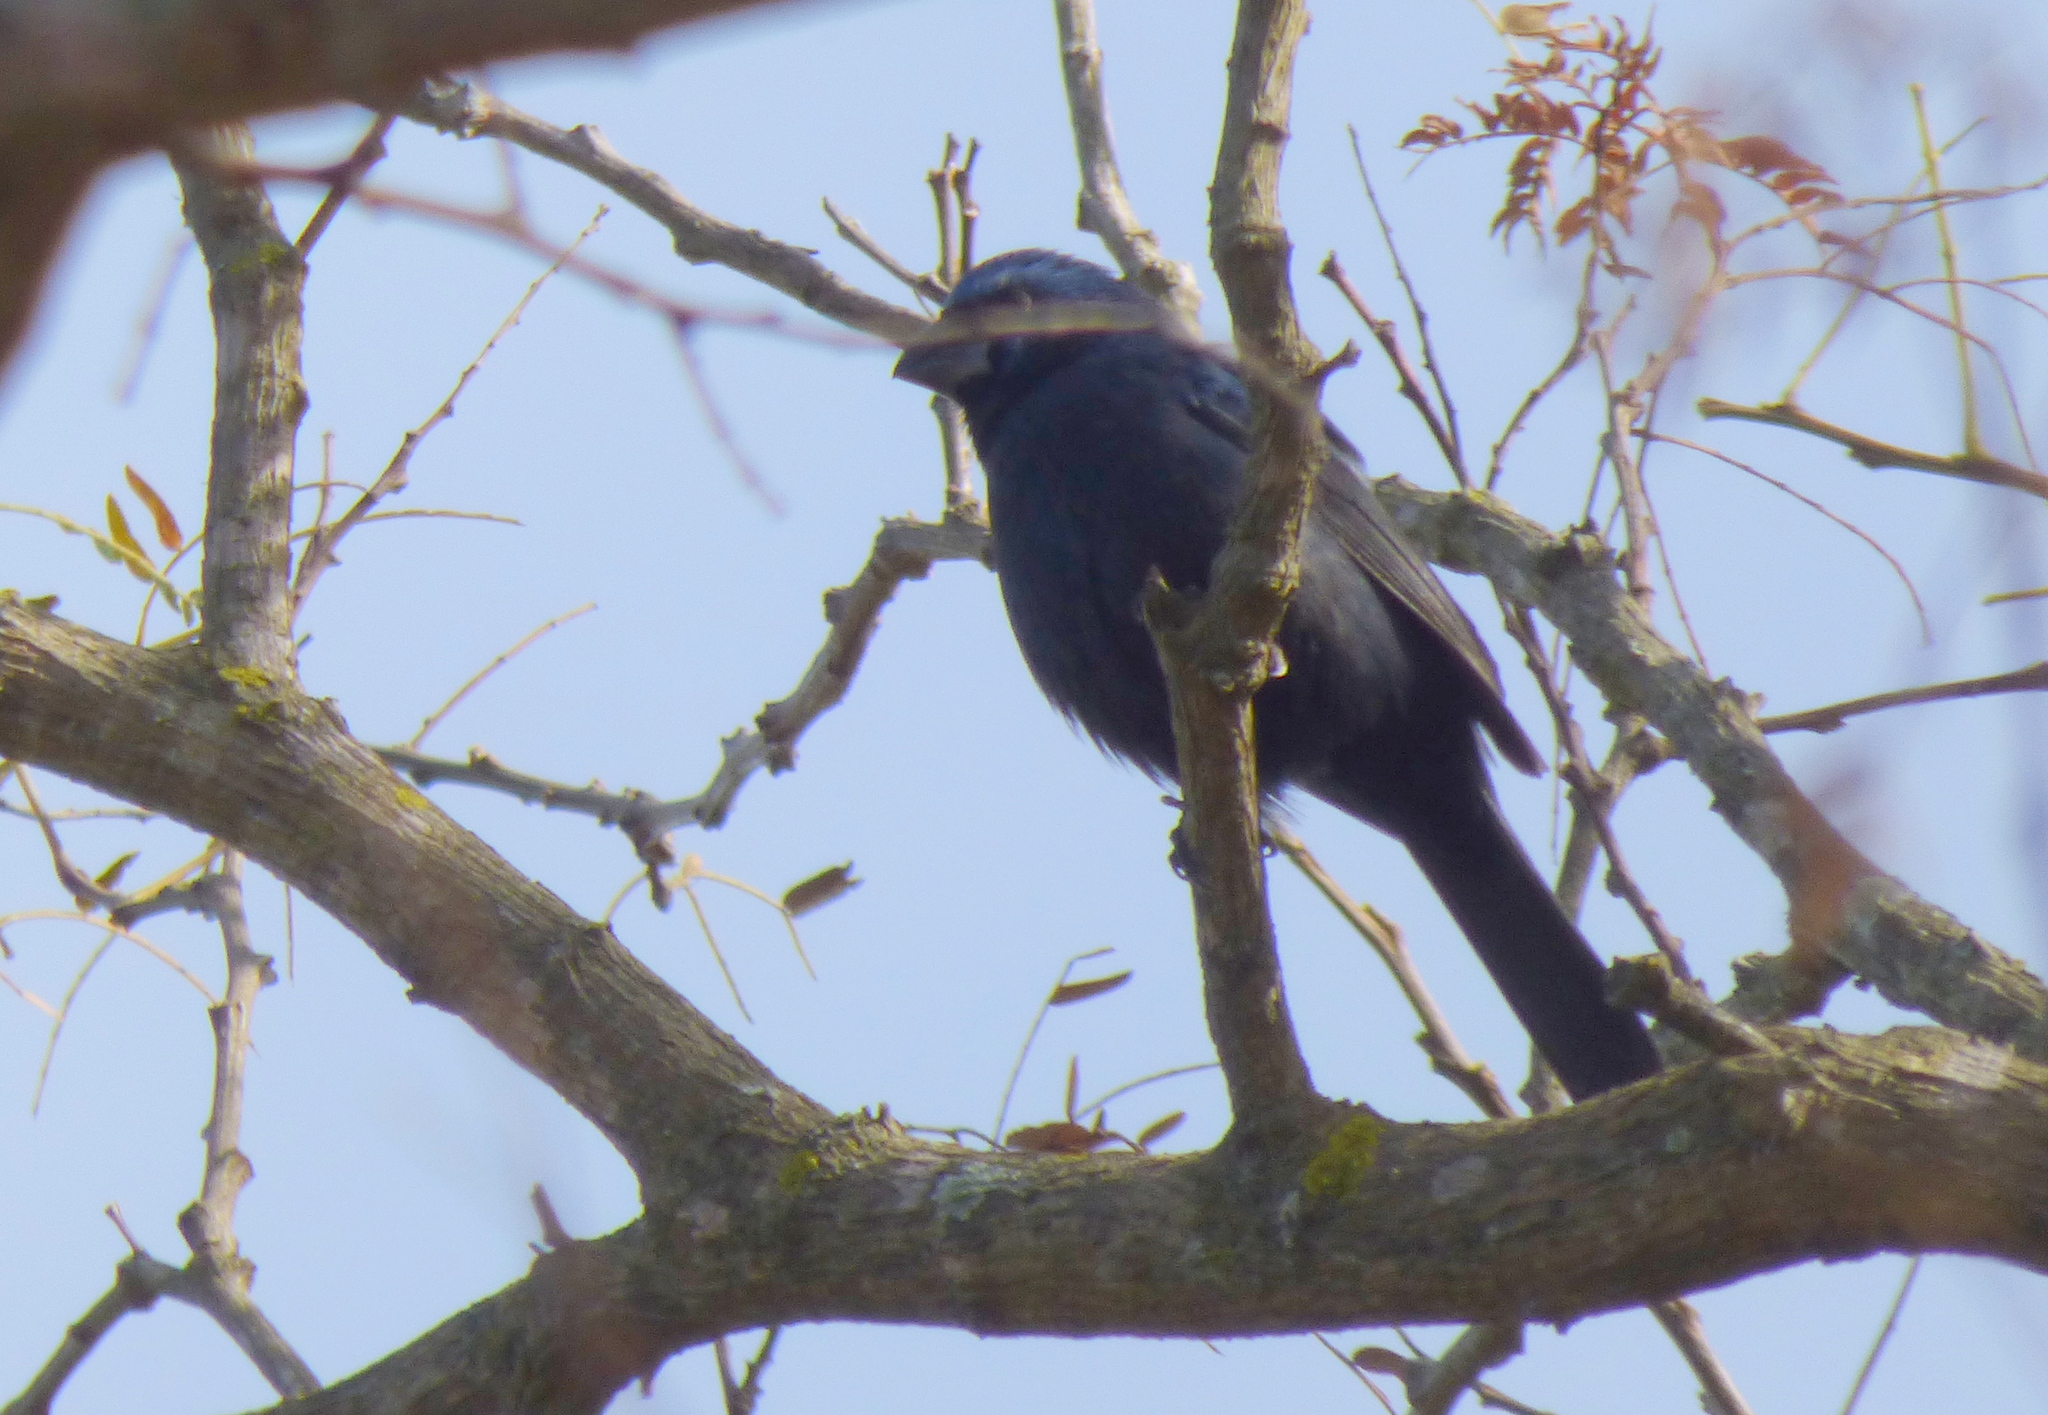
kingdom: Animalia
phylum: Chordata
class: Aves
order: Passeriformes
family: Cardinalidae
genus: Cyanoloxia
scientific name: Cyanoloxia brissonii
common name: Ultramarine grosbeak
